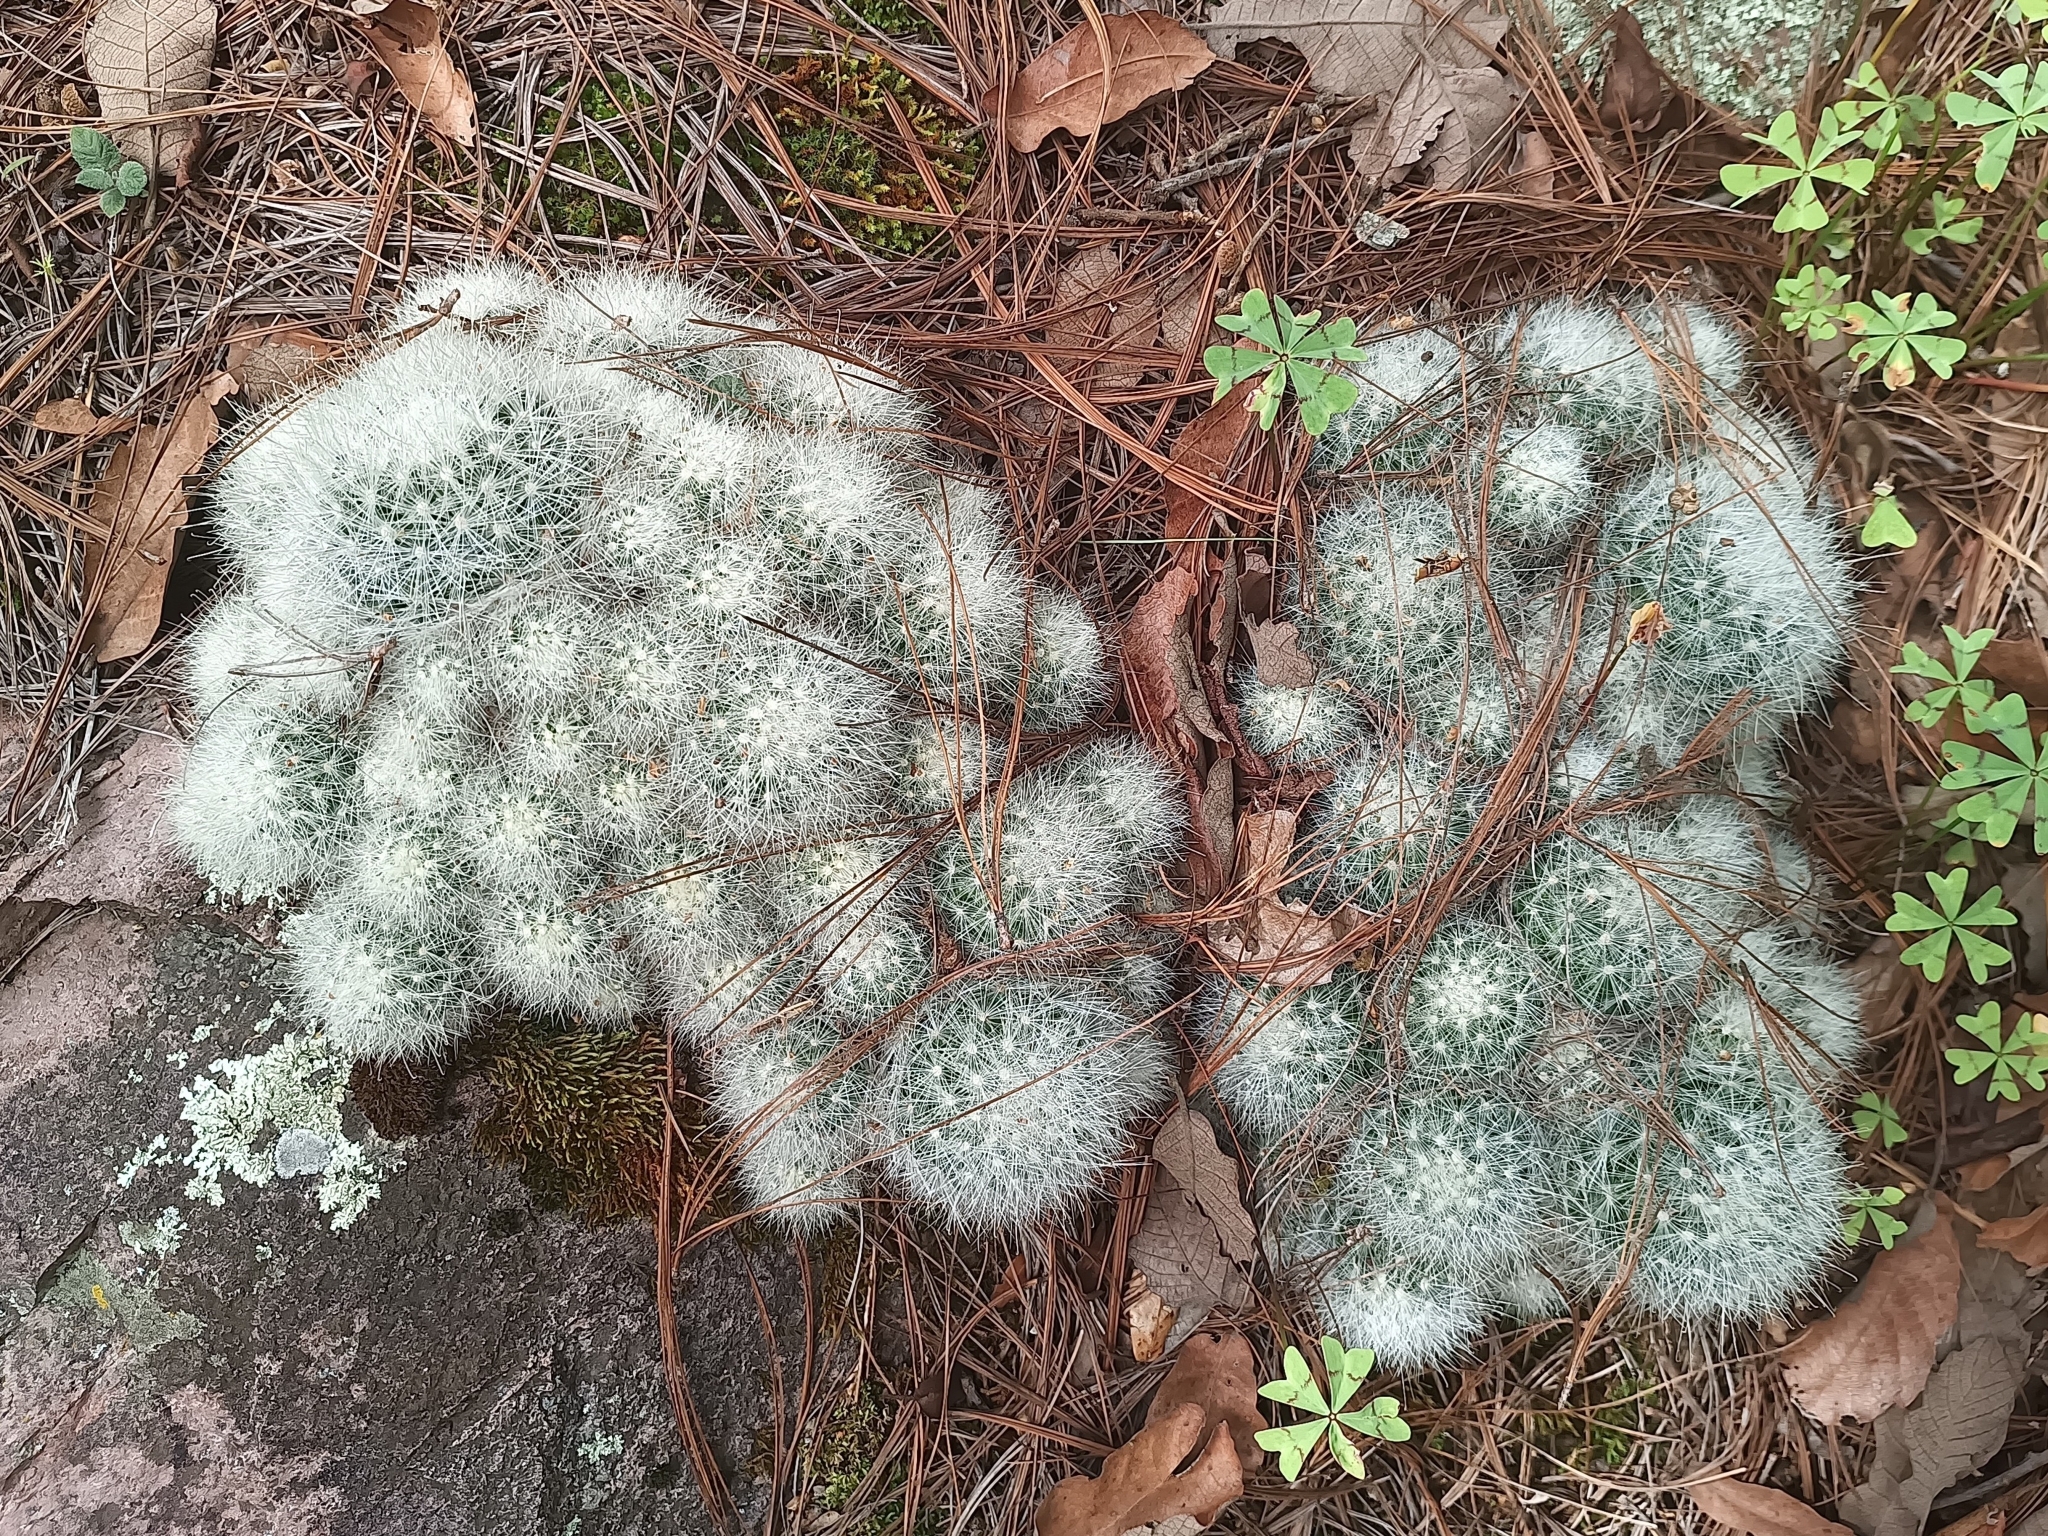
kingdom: Plantae
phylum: Tracheophyta
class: Magnoliopsida
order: Caryophyllales
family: Cactaceae
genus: Mammillaria
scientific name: Mammillaria senilis
